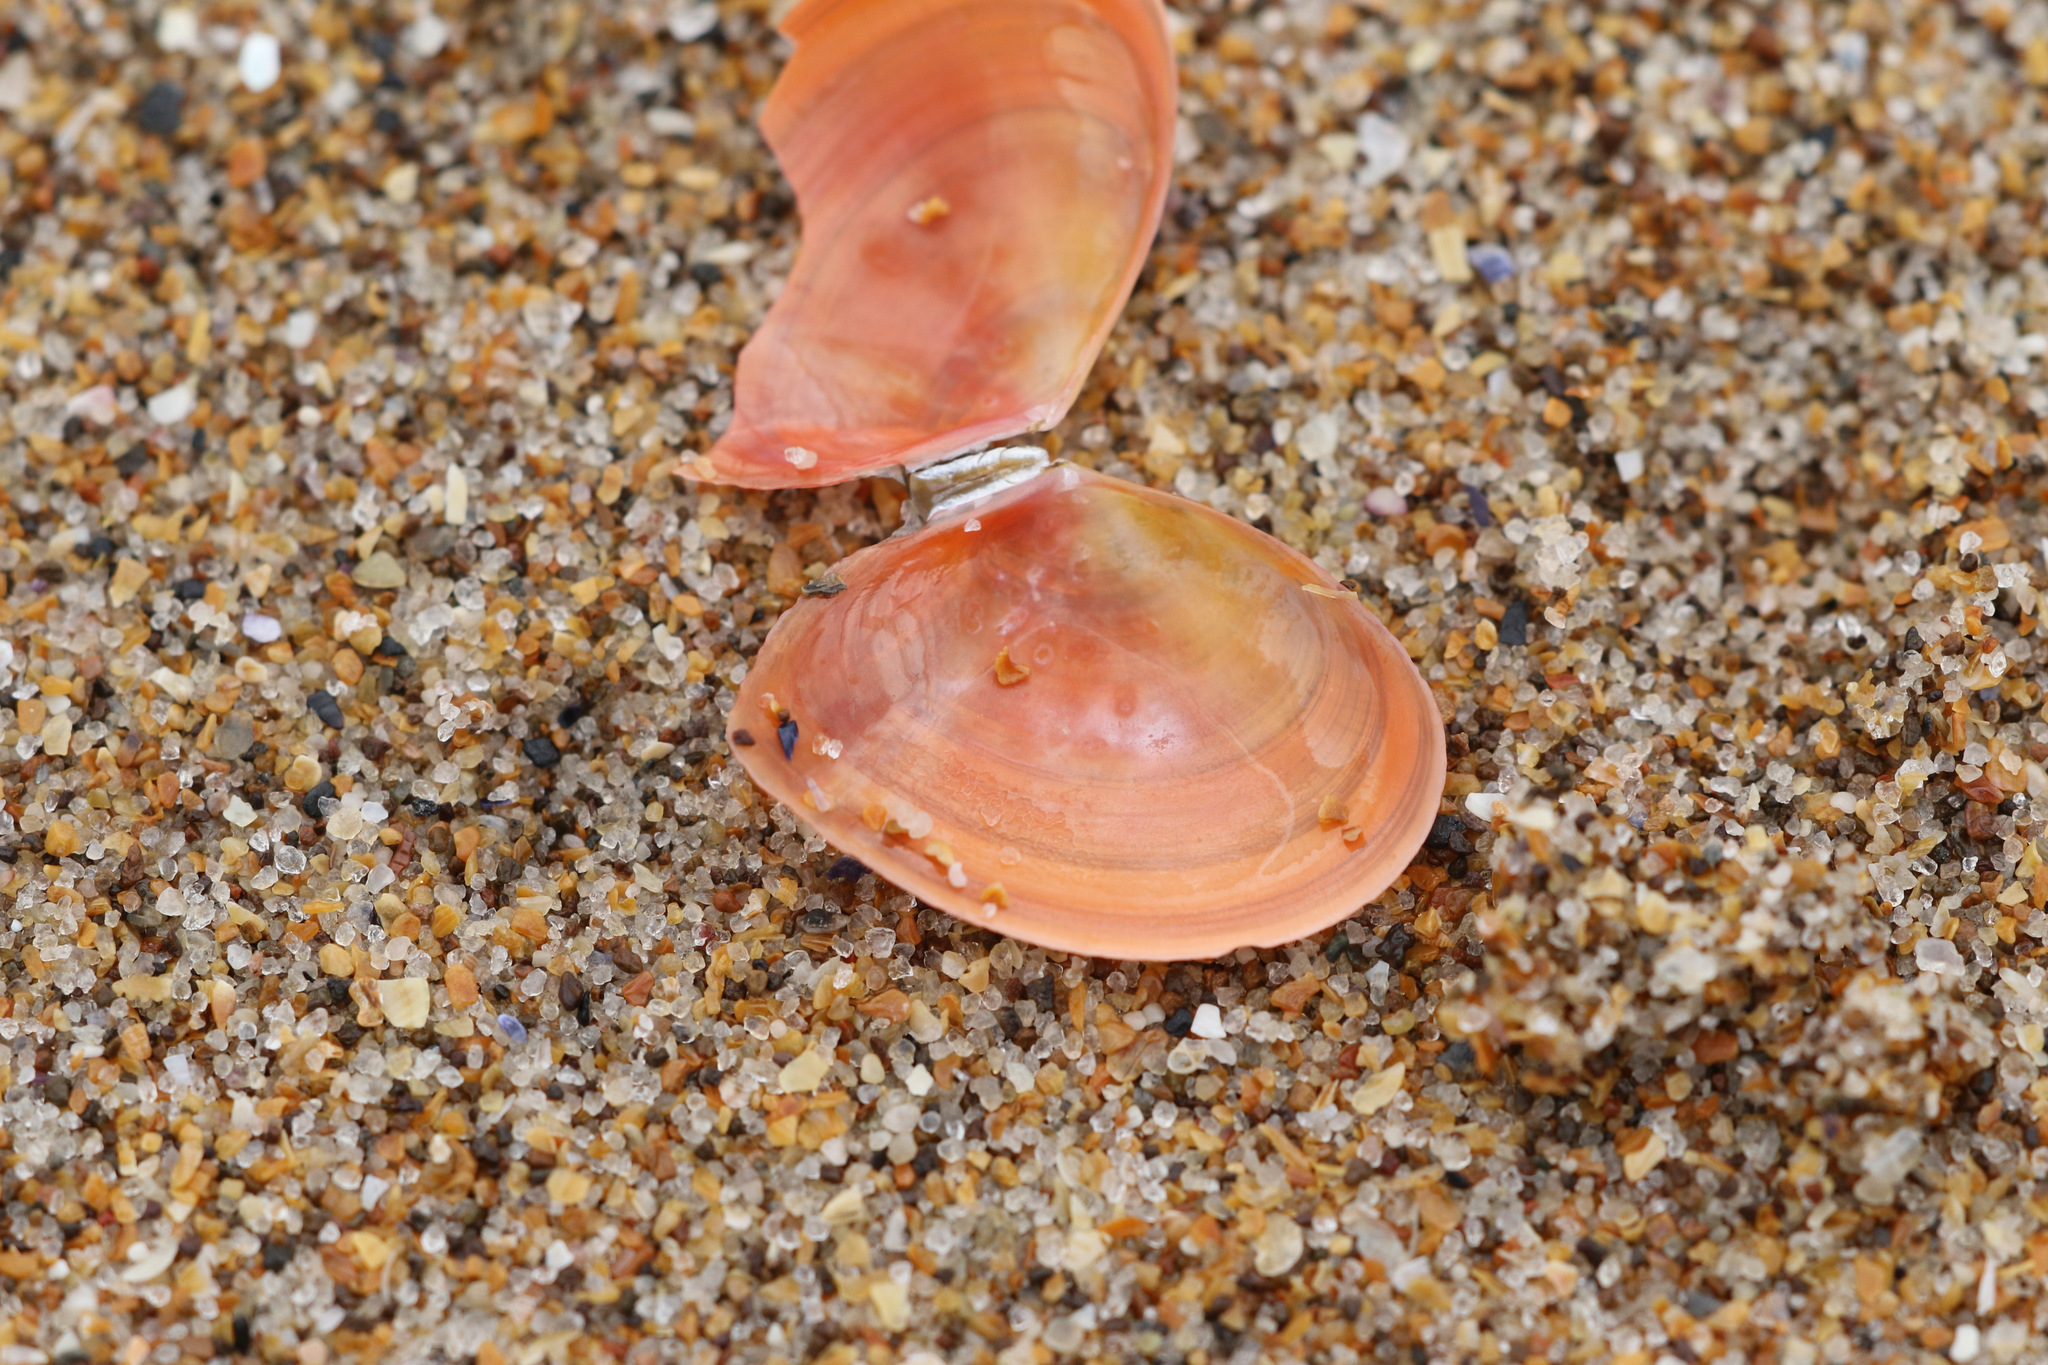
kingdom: Animalia
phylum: Mollusca
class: Bivalvia
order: Cardiida
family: Tellinidae
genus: Macomangulus
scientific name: Macomangulus tenuis
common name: Thin tellin
